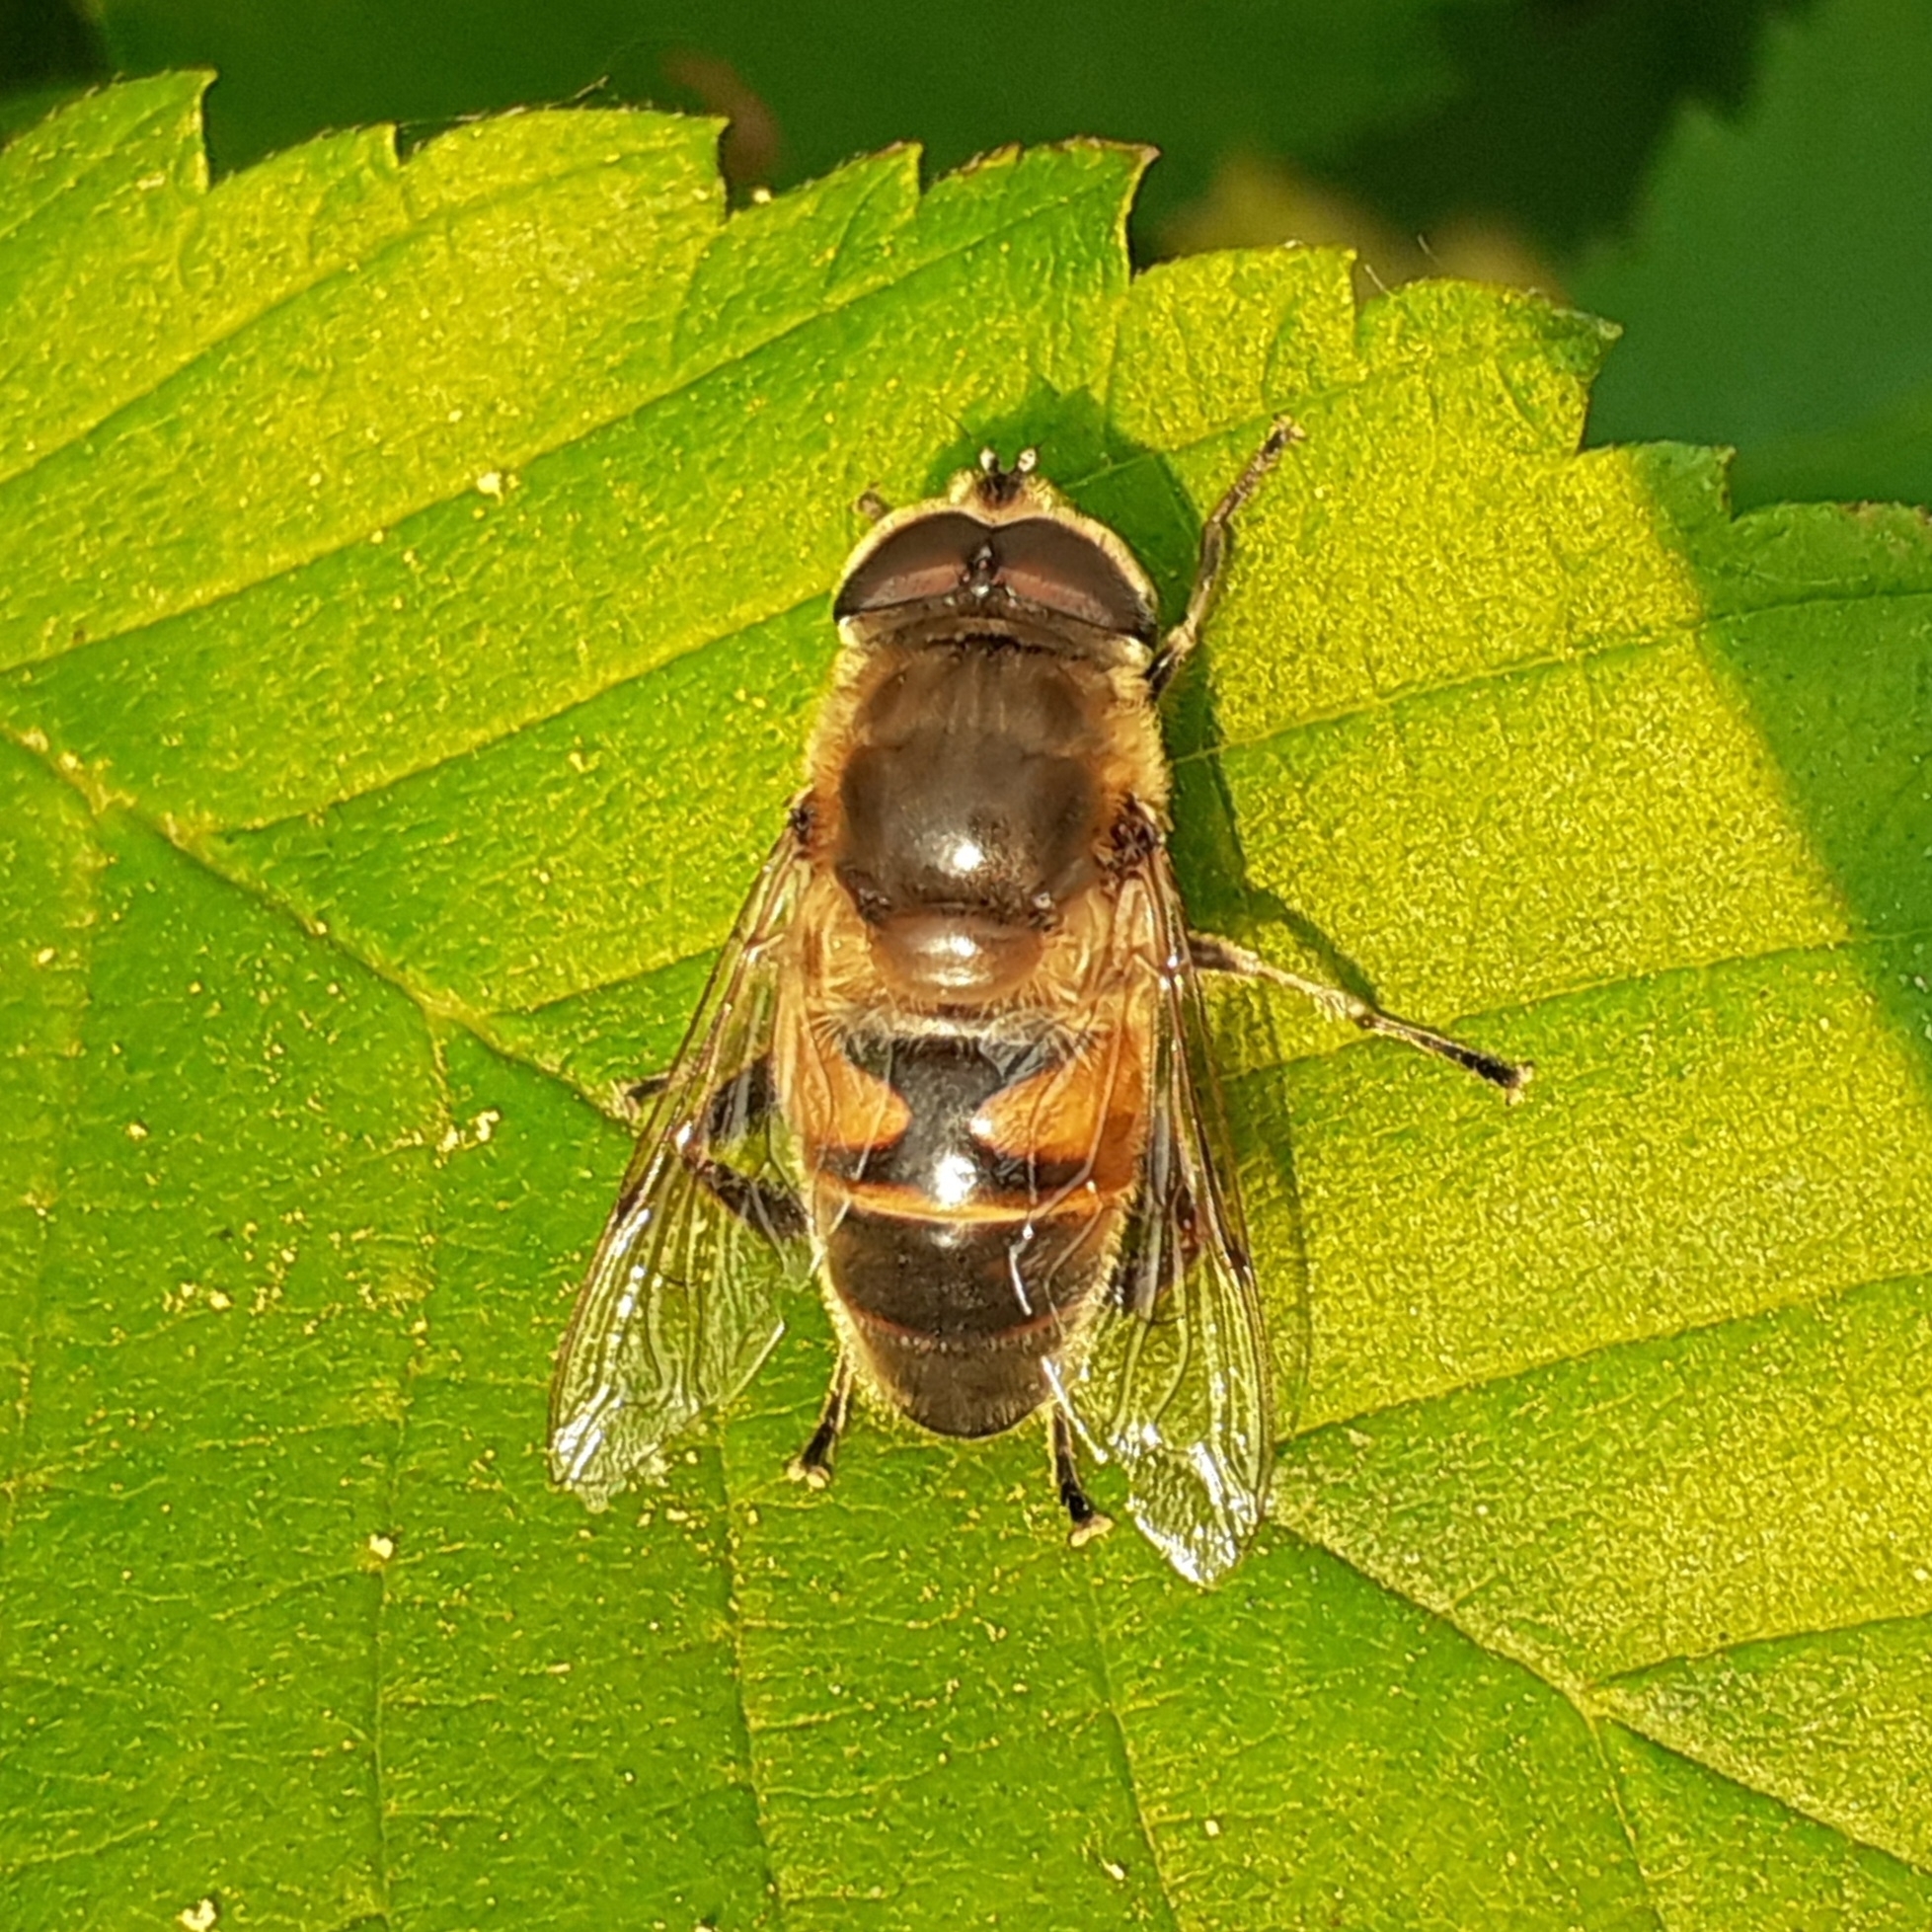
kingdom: Animalia
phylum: Arthropoda
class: Insecta
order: Diptera
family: Syrphidae
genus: Eristalis
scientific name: Eristalis tenax
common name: Drone fly
